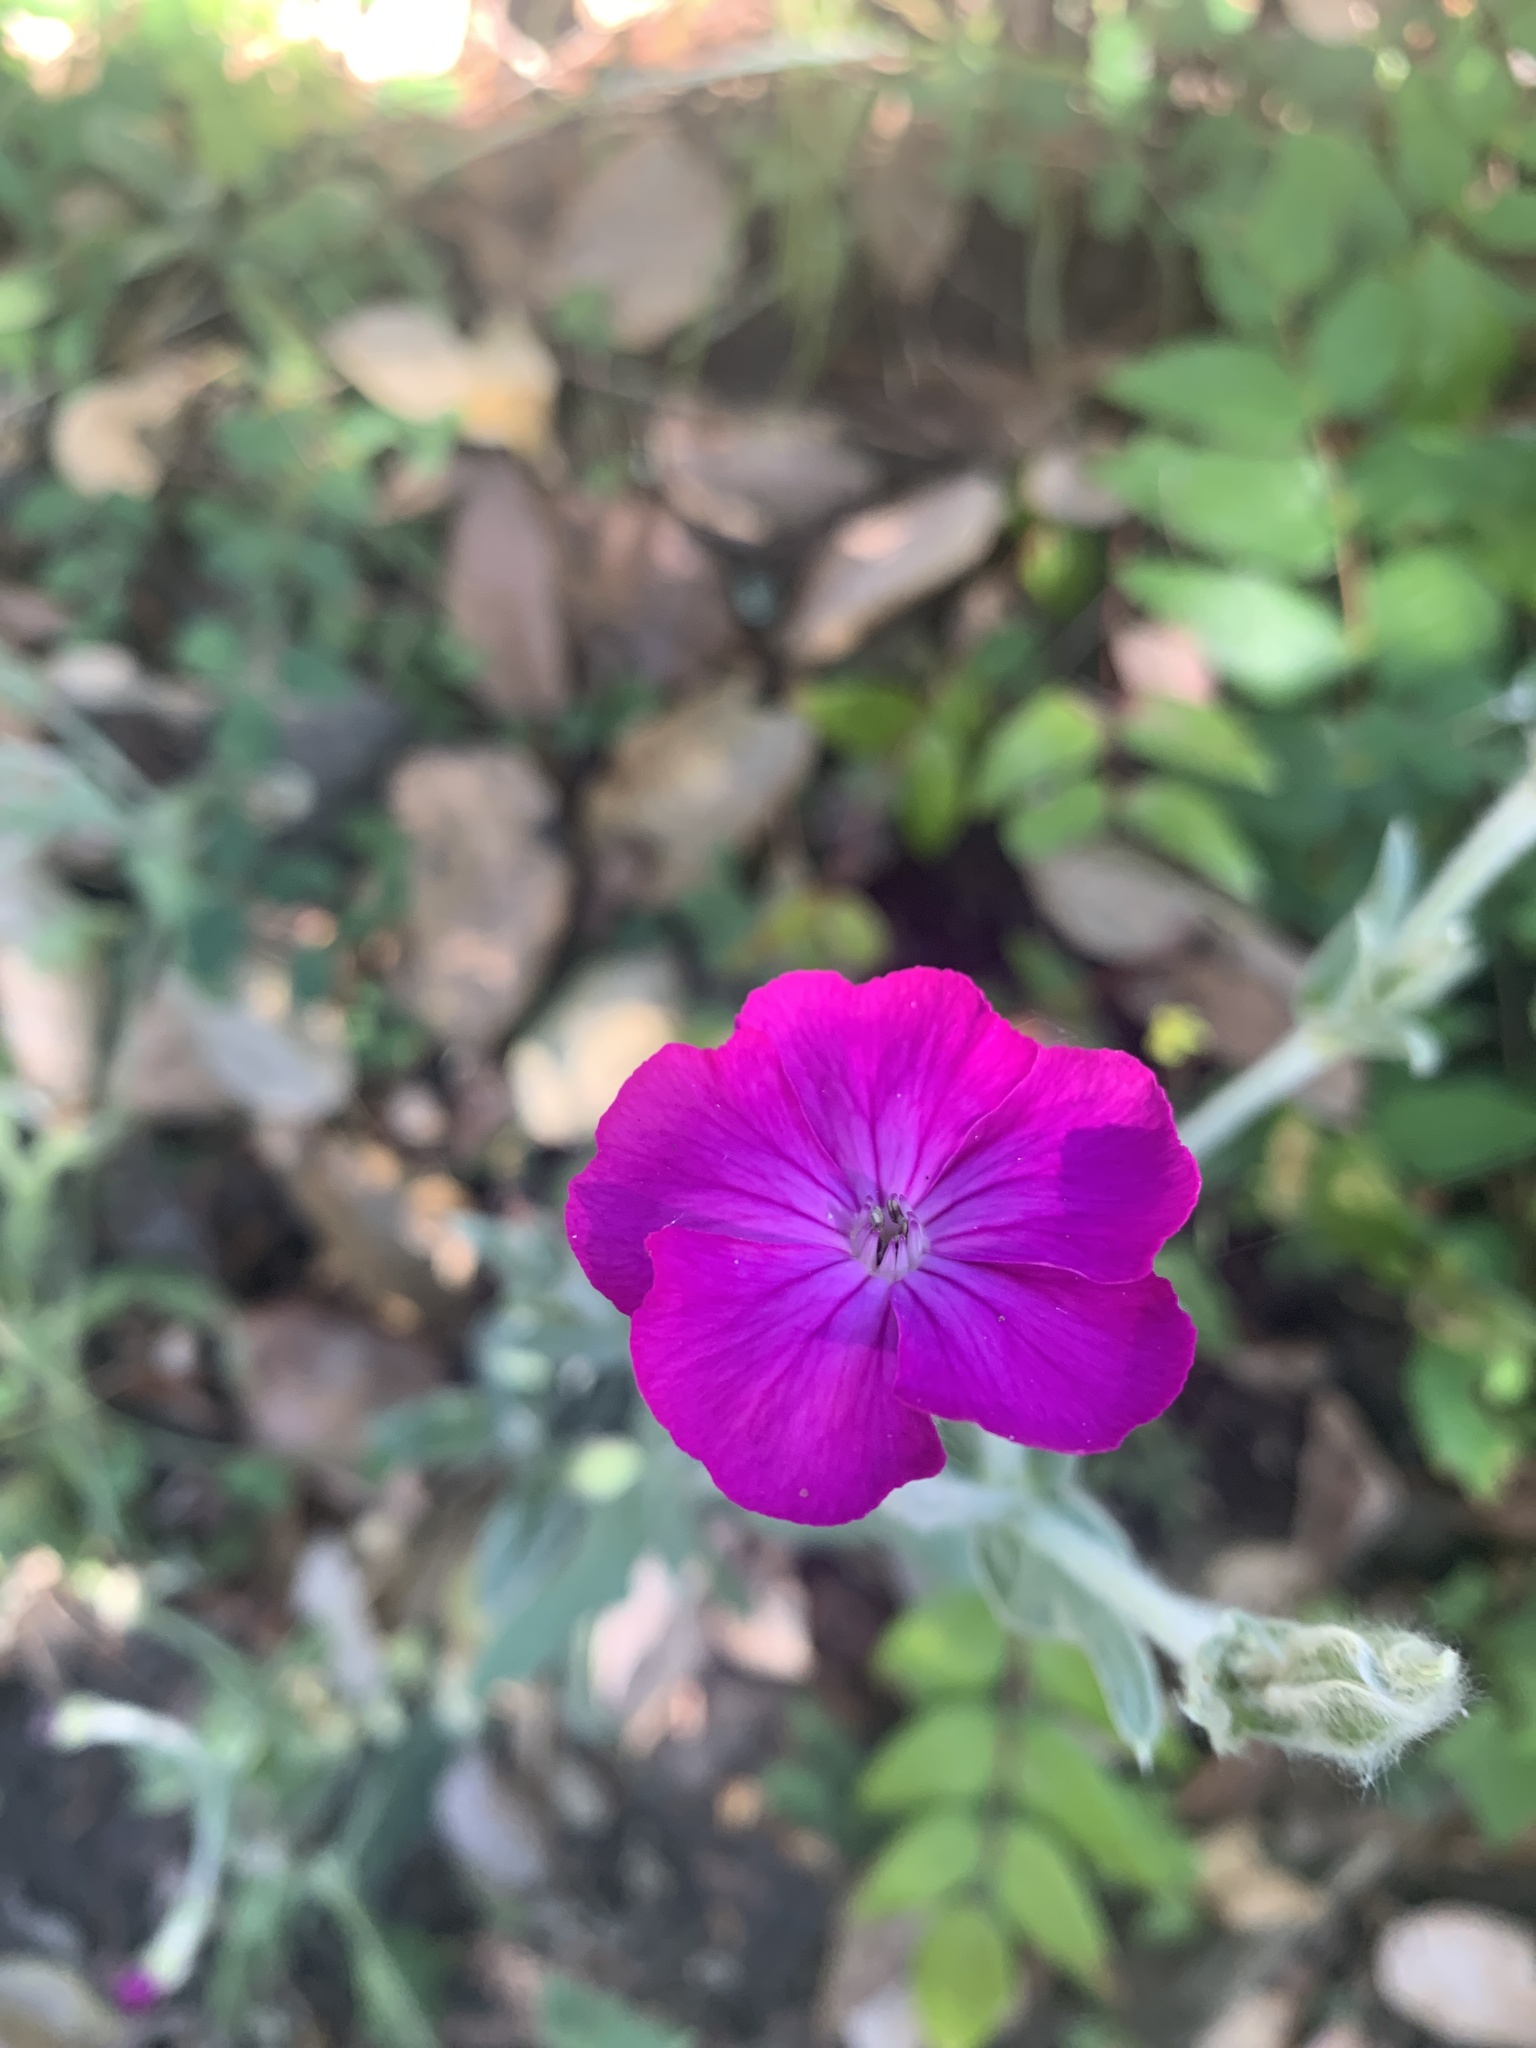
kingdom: Plantae
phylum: Tracheophyta
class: Magnoliopsida
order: Caryophyllales
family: Caryophyllaceae
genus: Silene
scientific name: Silene coronaria
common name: Rose campion
